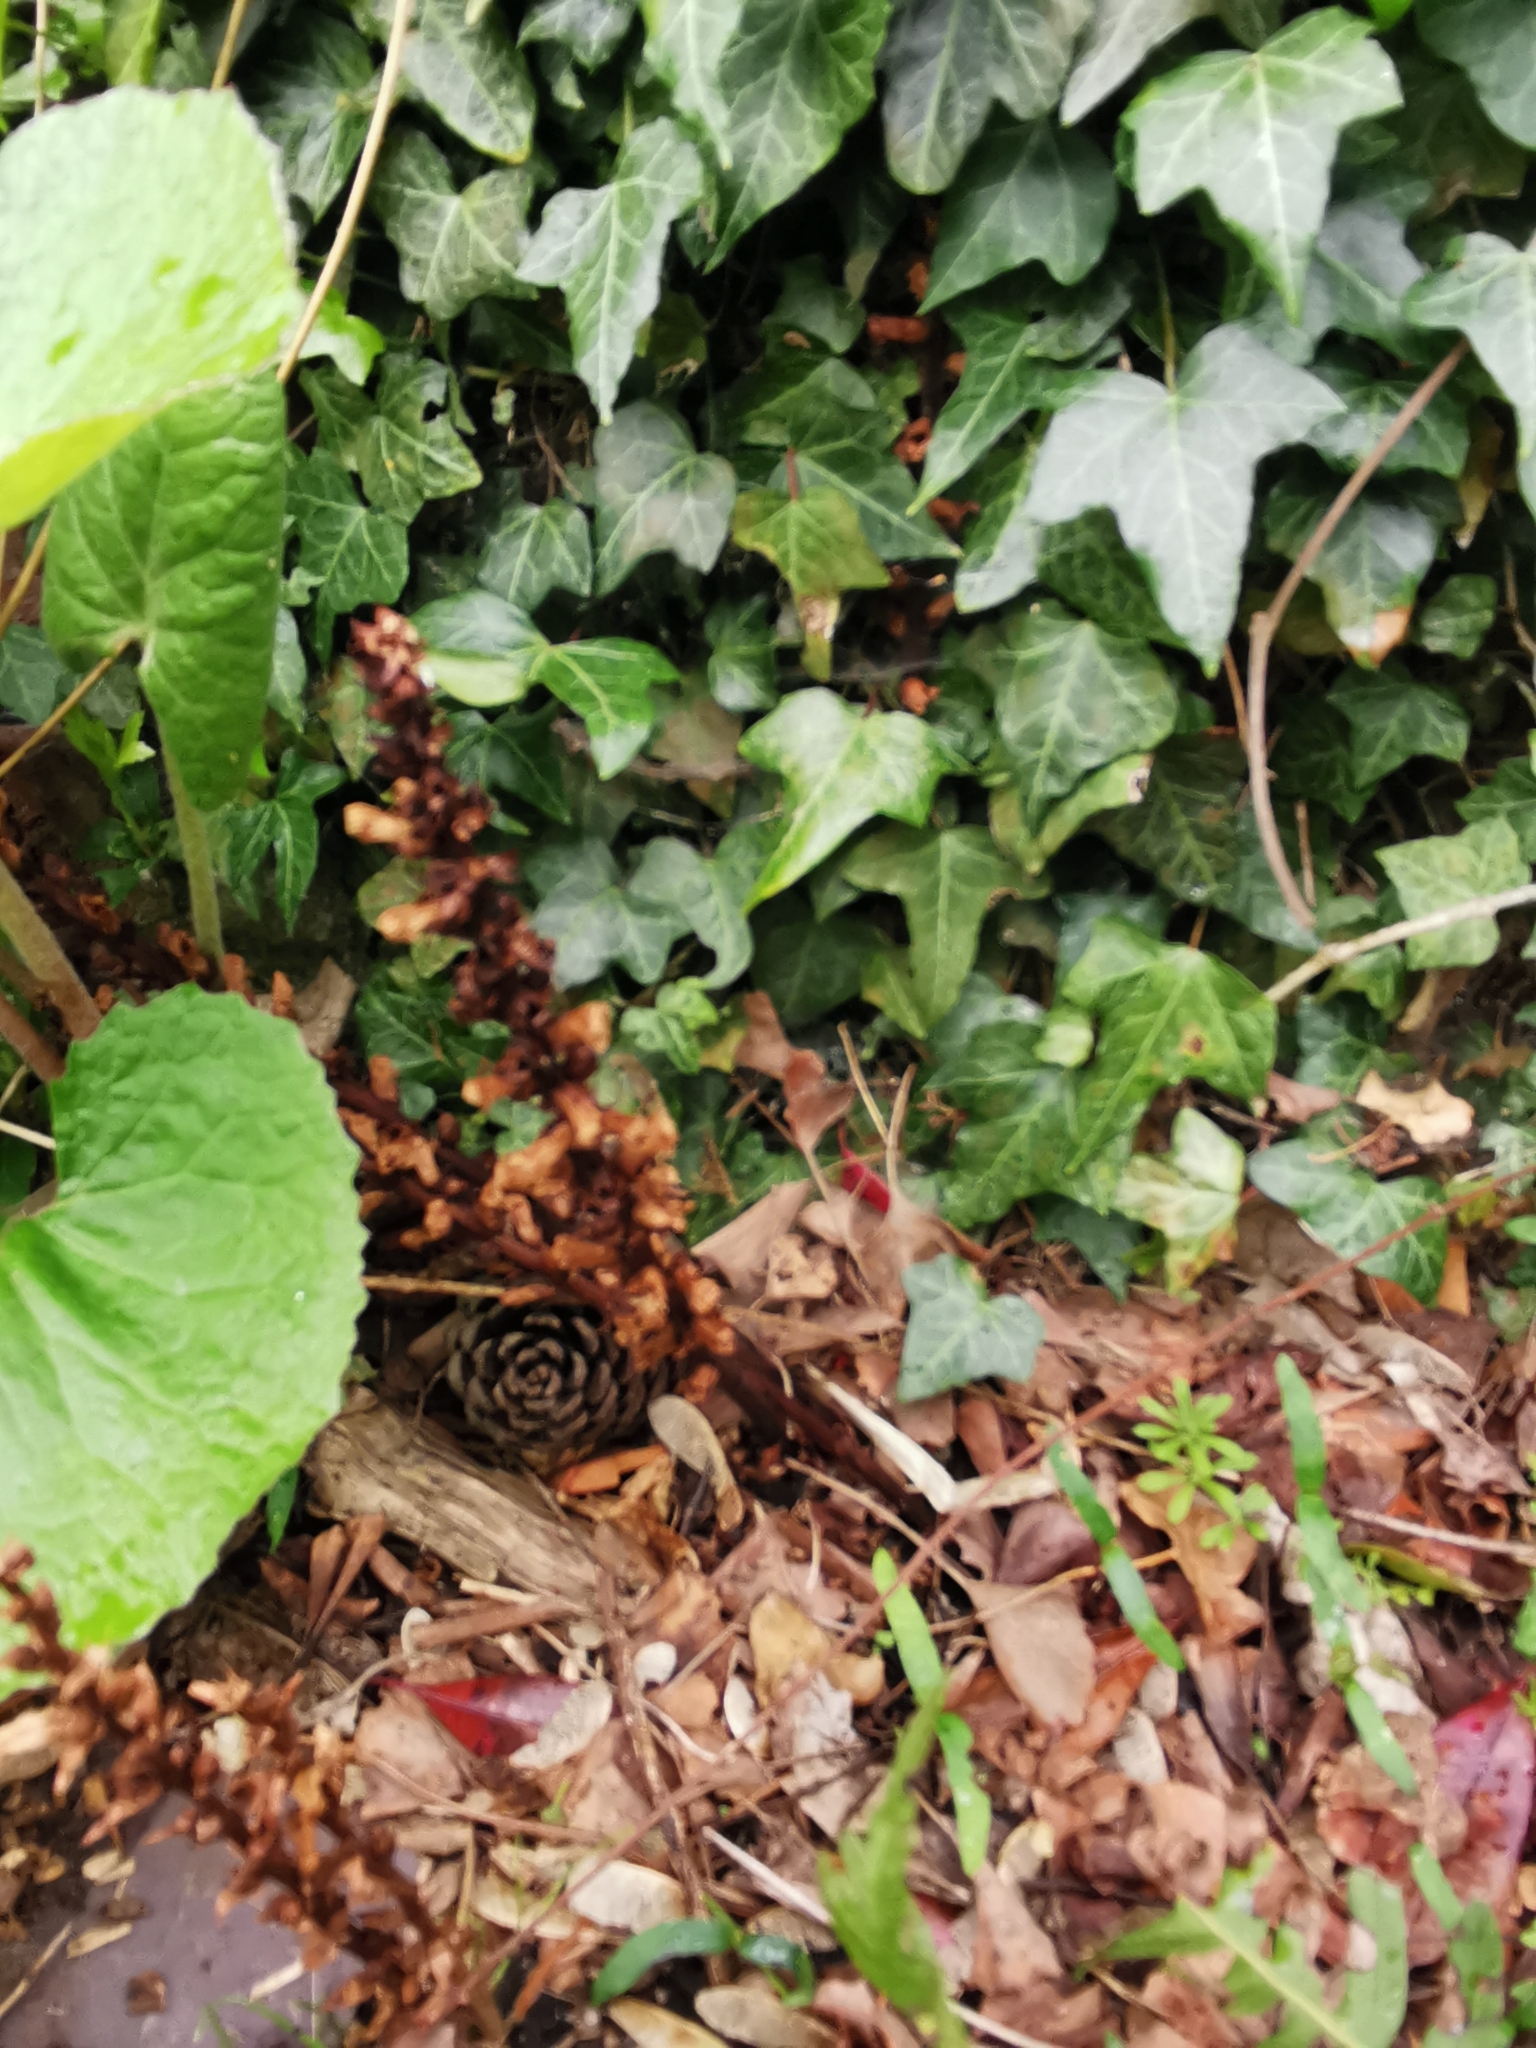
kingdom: Plantae
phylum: Tracheophyta
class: Magnoliopsida
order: Lamiales
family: Orobanchaceae
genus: Orobanche
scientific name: Orobanche hederae
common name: Ivy broomrape
